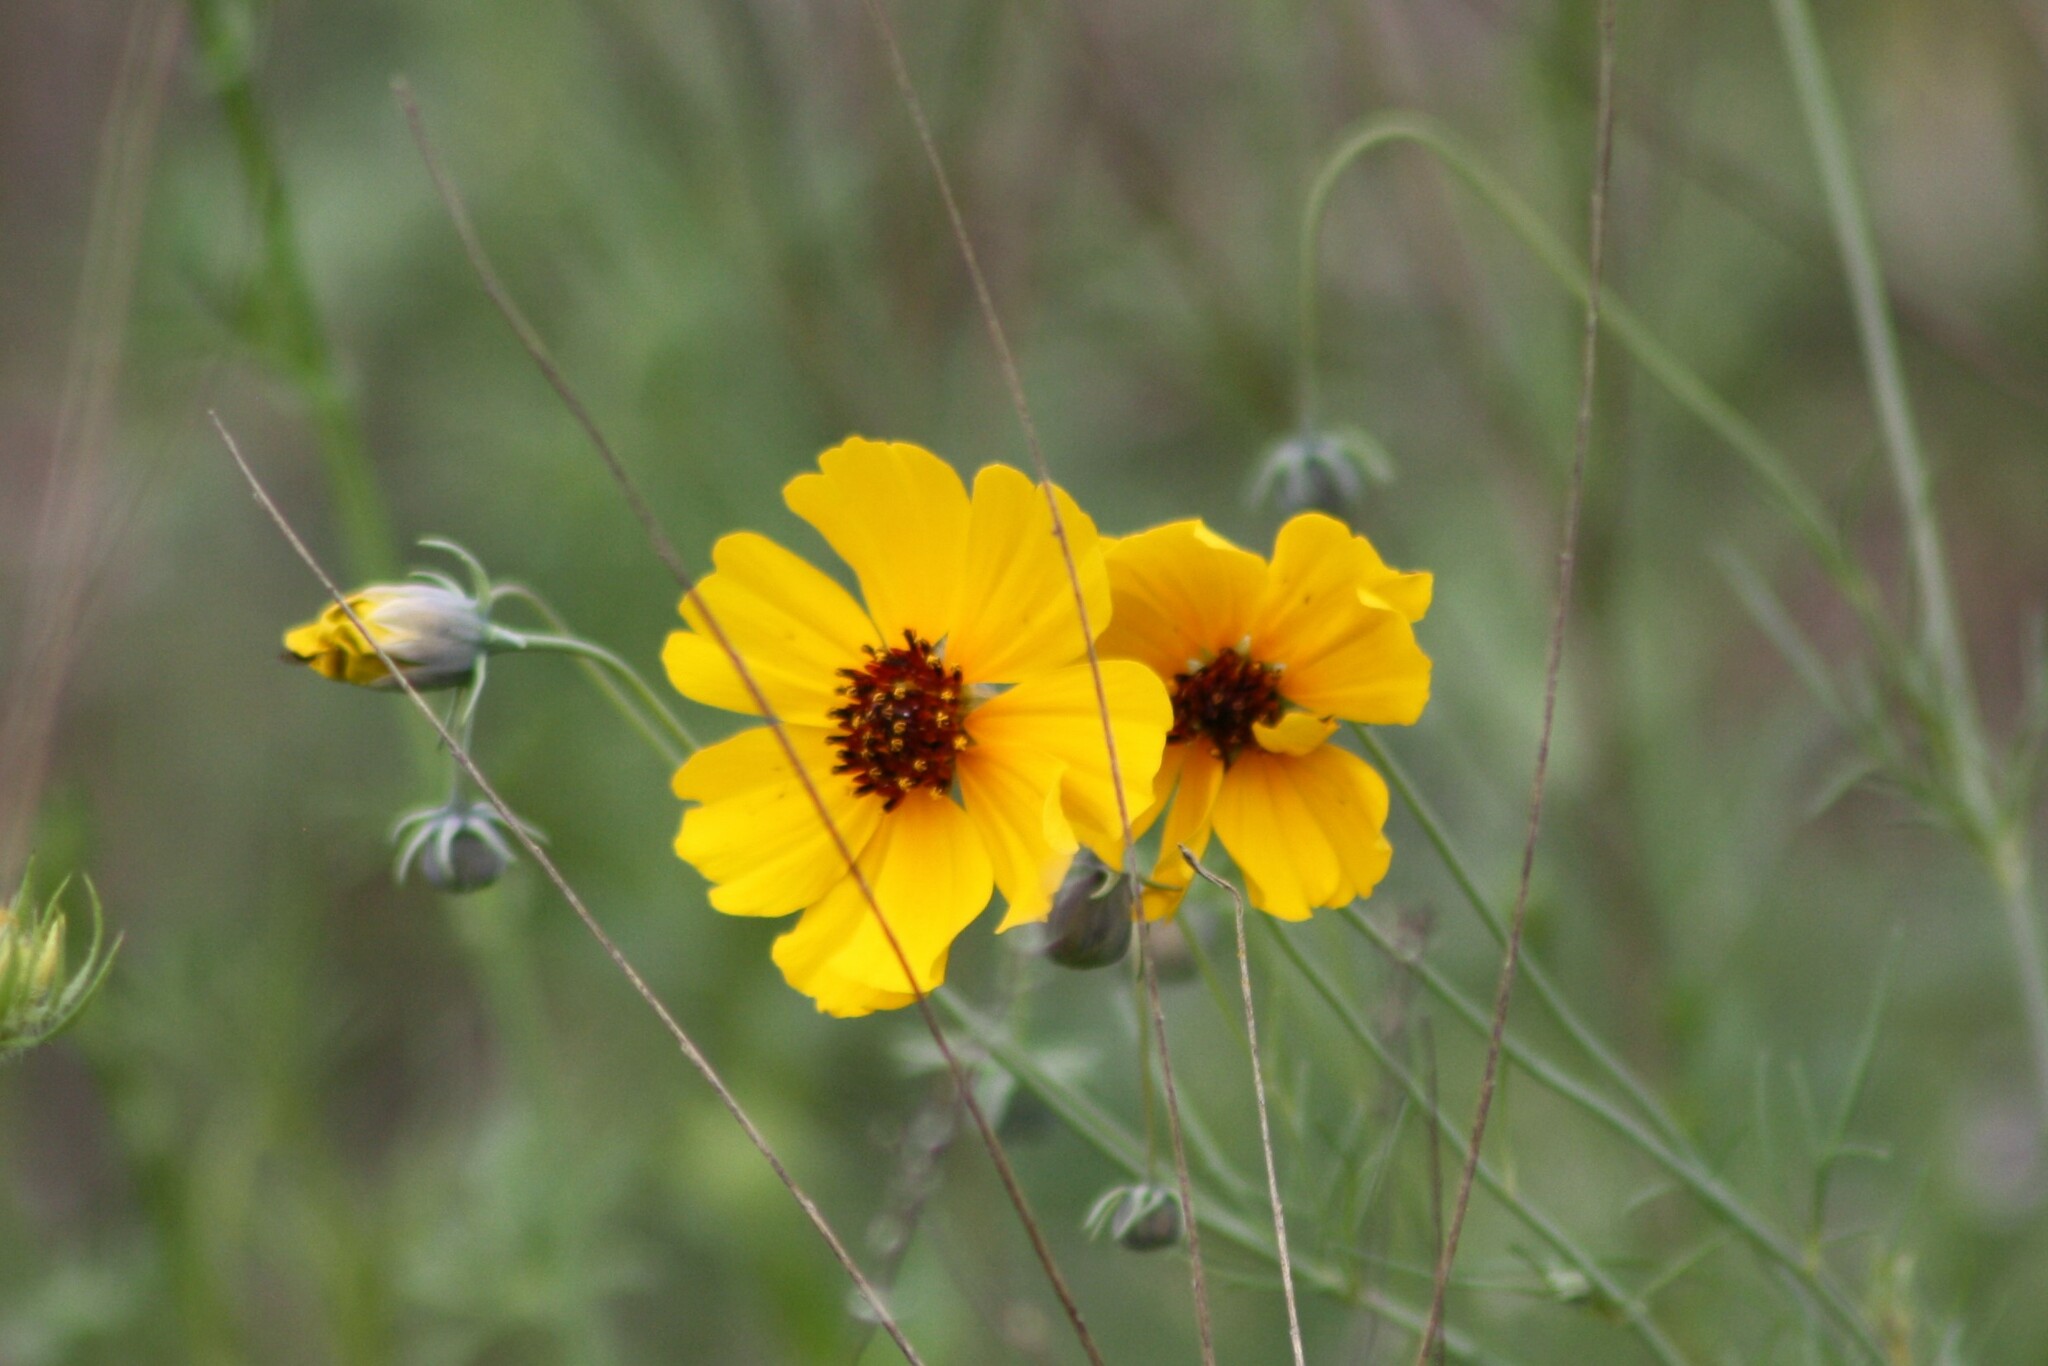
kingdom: Plantae
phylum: Tracheophyta
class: Magnoliopsida
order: Asterales
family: Asteraceae
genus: Thelesperma
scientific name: Thelesperma filifolium
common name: Stiff greenthread
